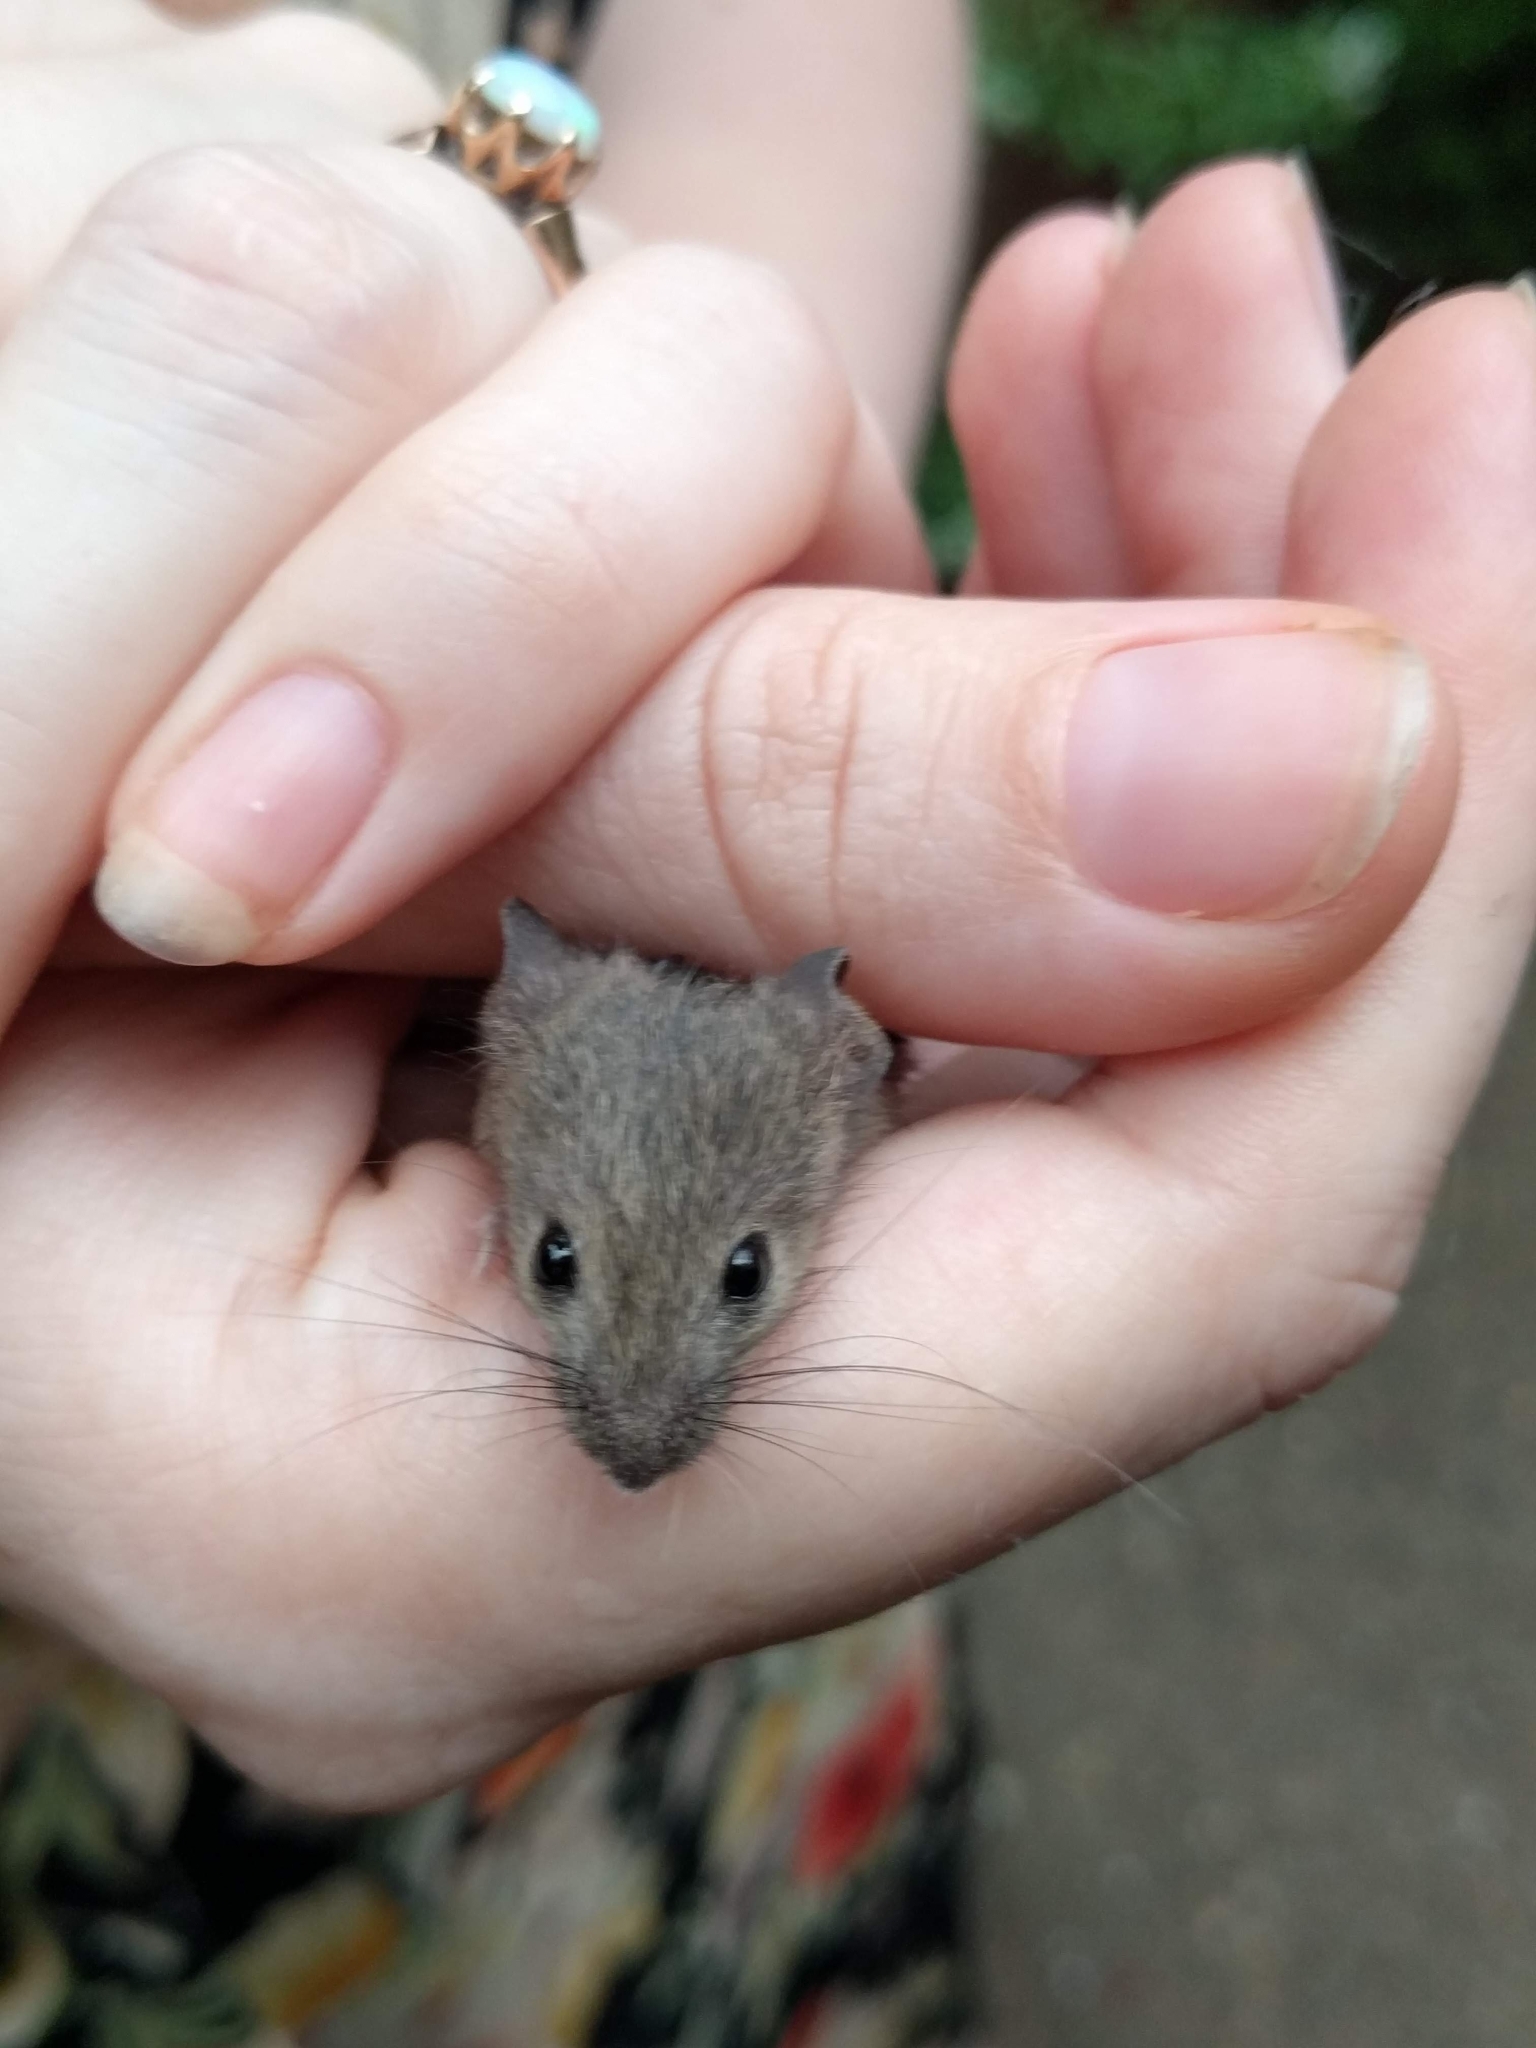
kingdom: Animalia
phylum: Chordata
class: Mammalia
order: Rodentia
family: Muridae
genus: Mus
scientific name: Mus musculus
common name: House mouse
